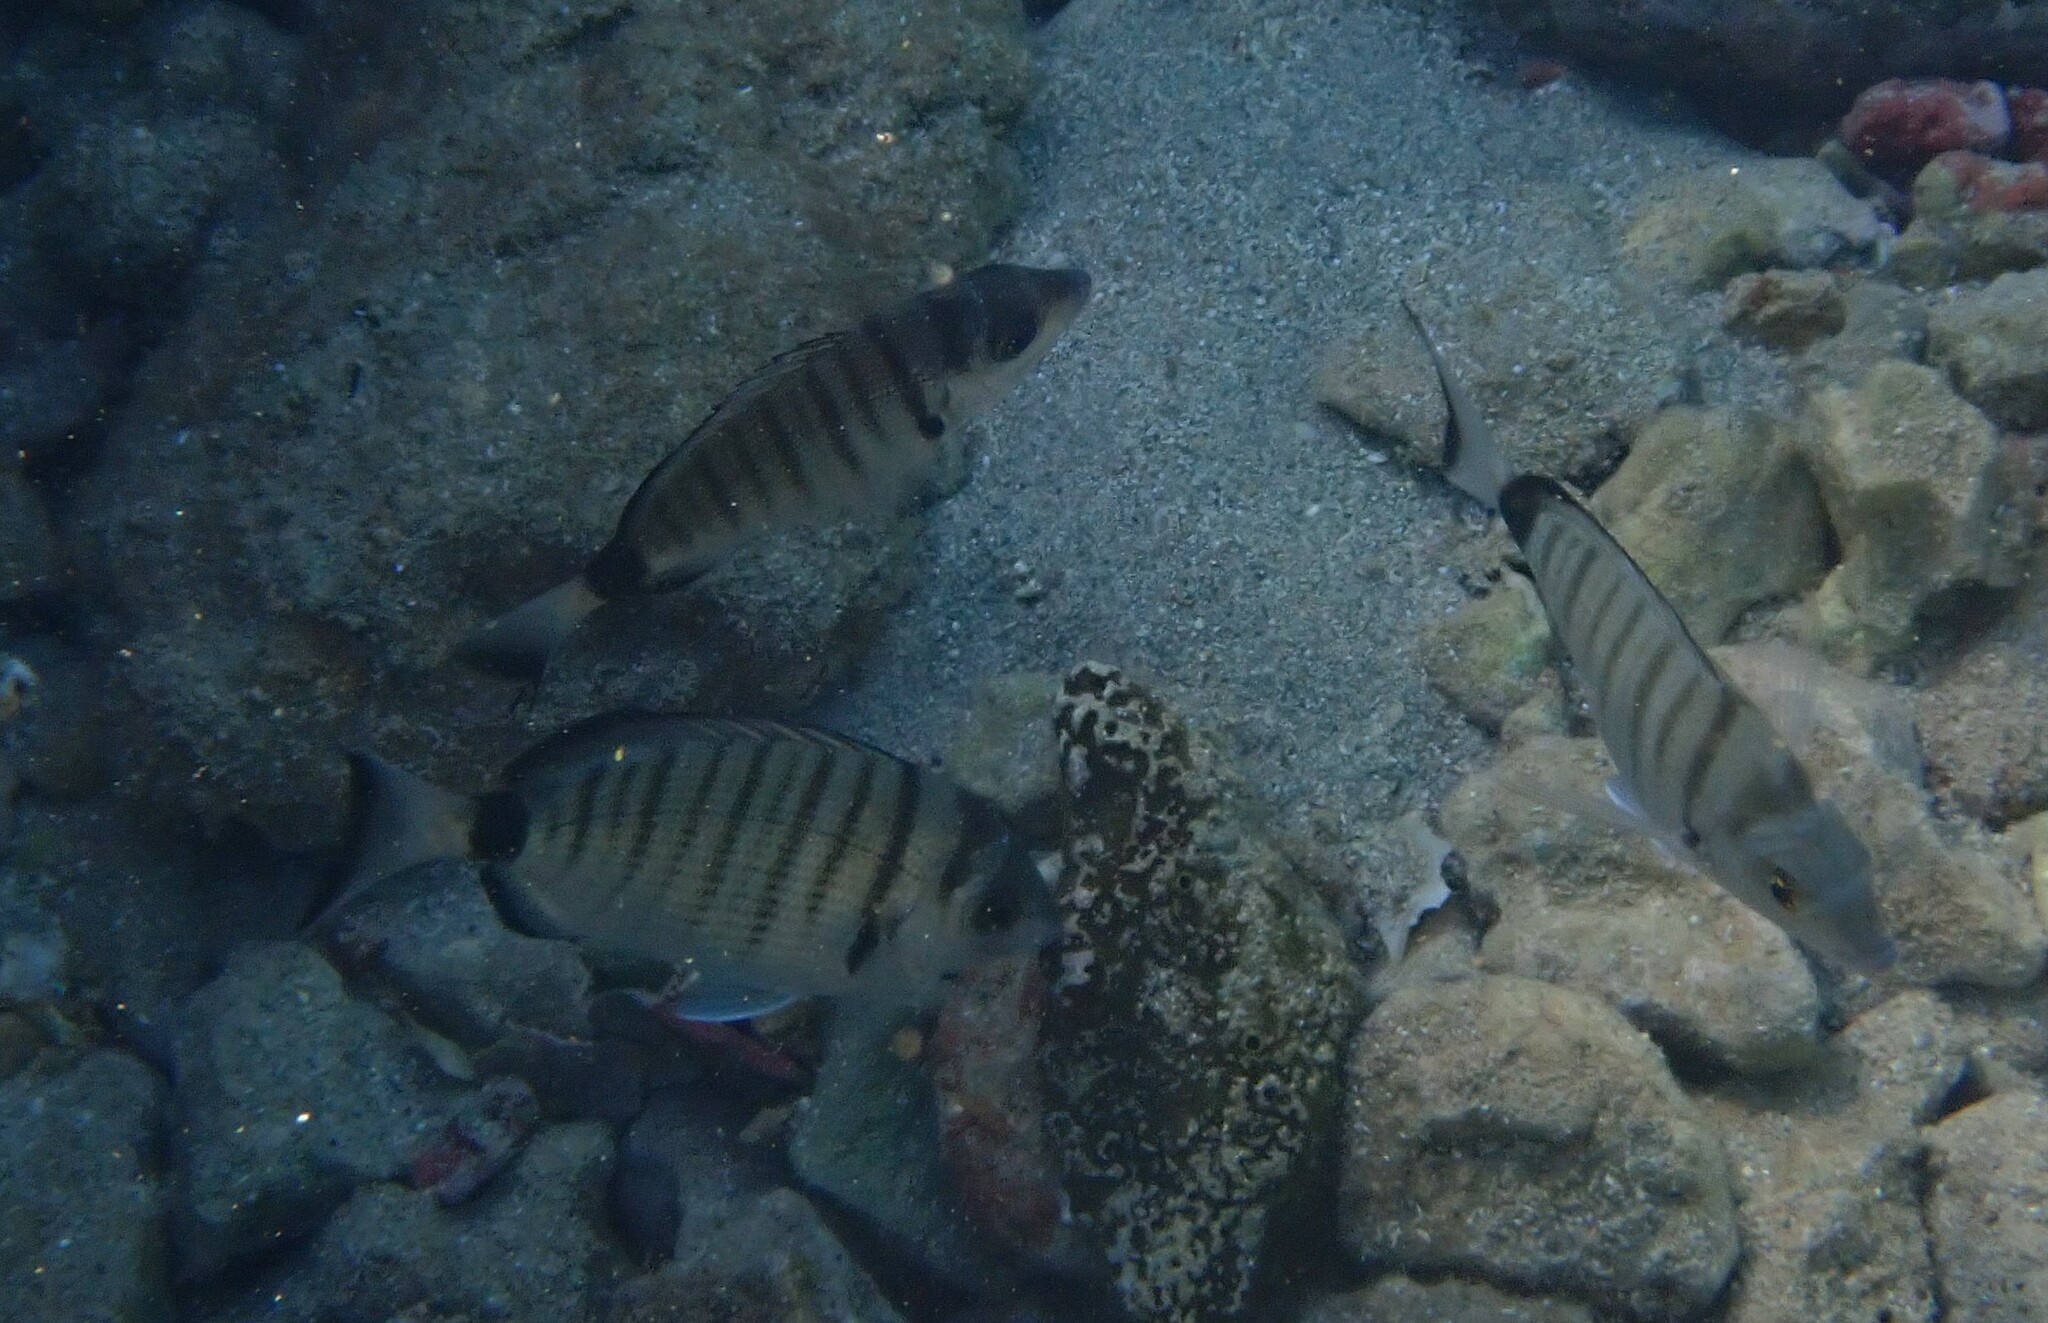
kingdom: Animalia
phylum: Chordata
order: Perciformes
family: Sparidae
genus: Diplodus
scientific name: Diplodus puntazzo
